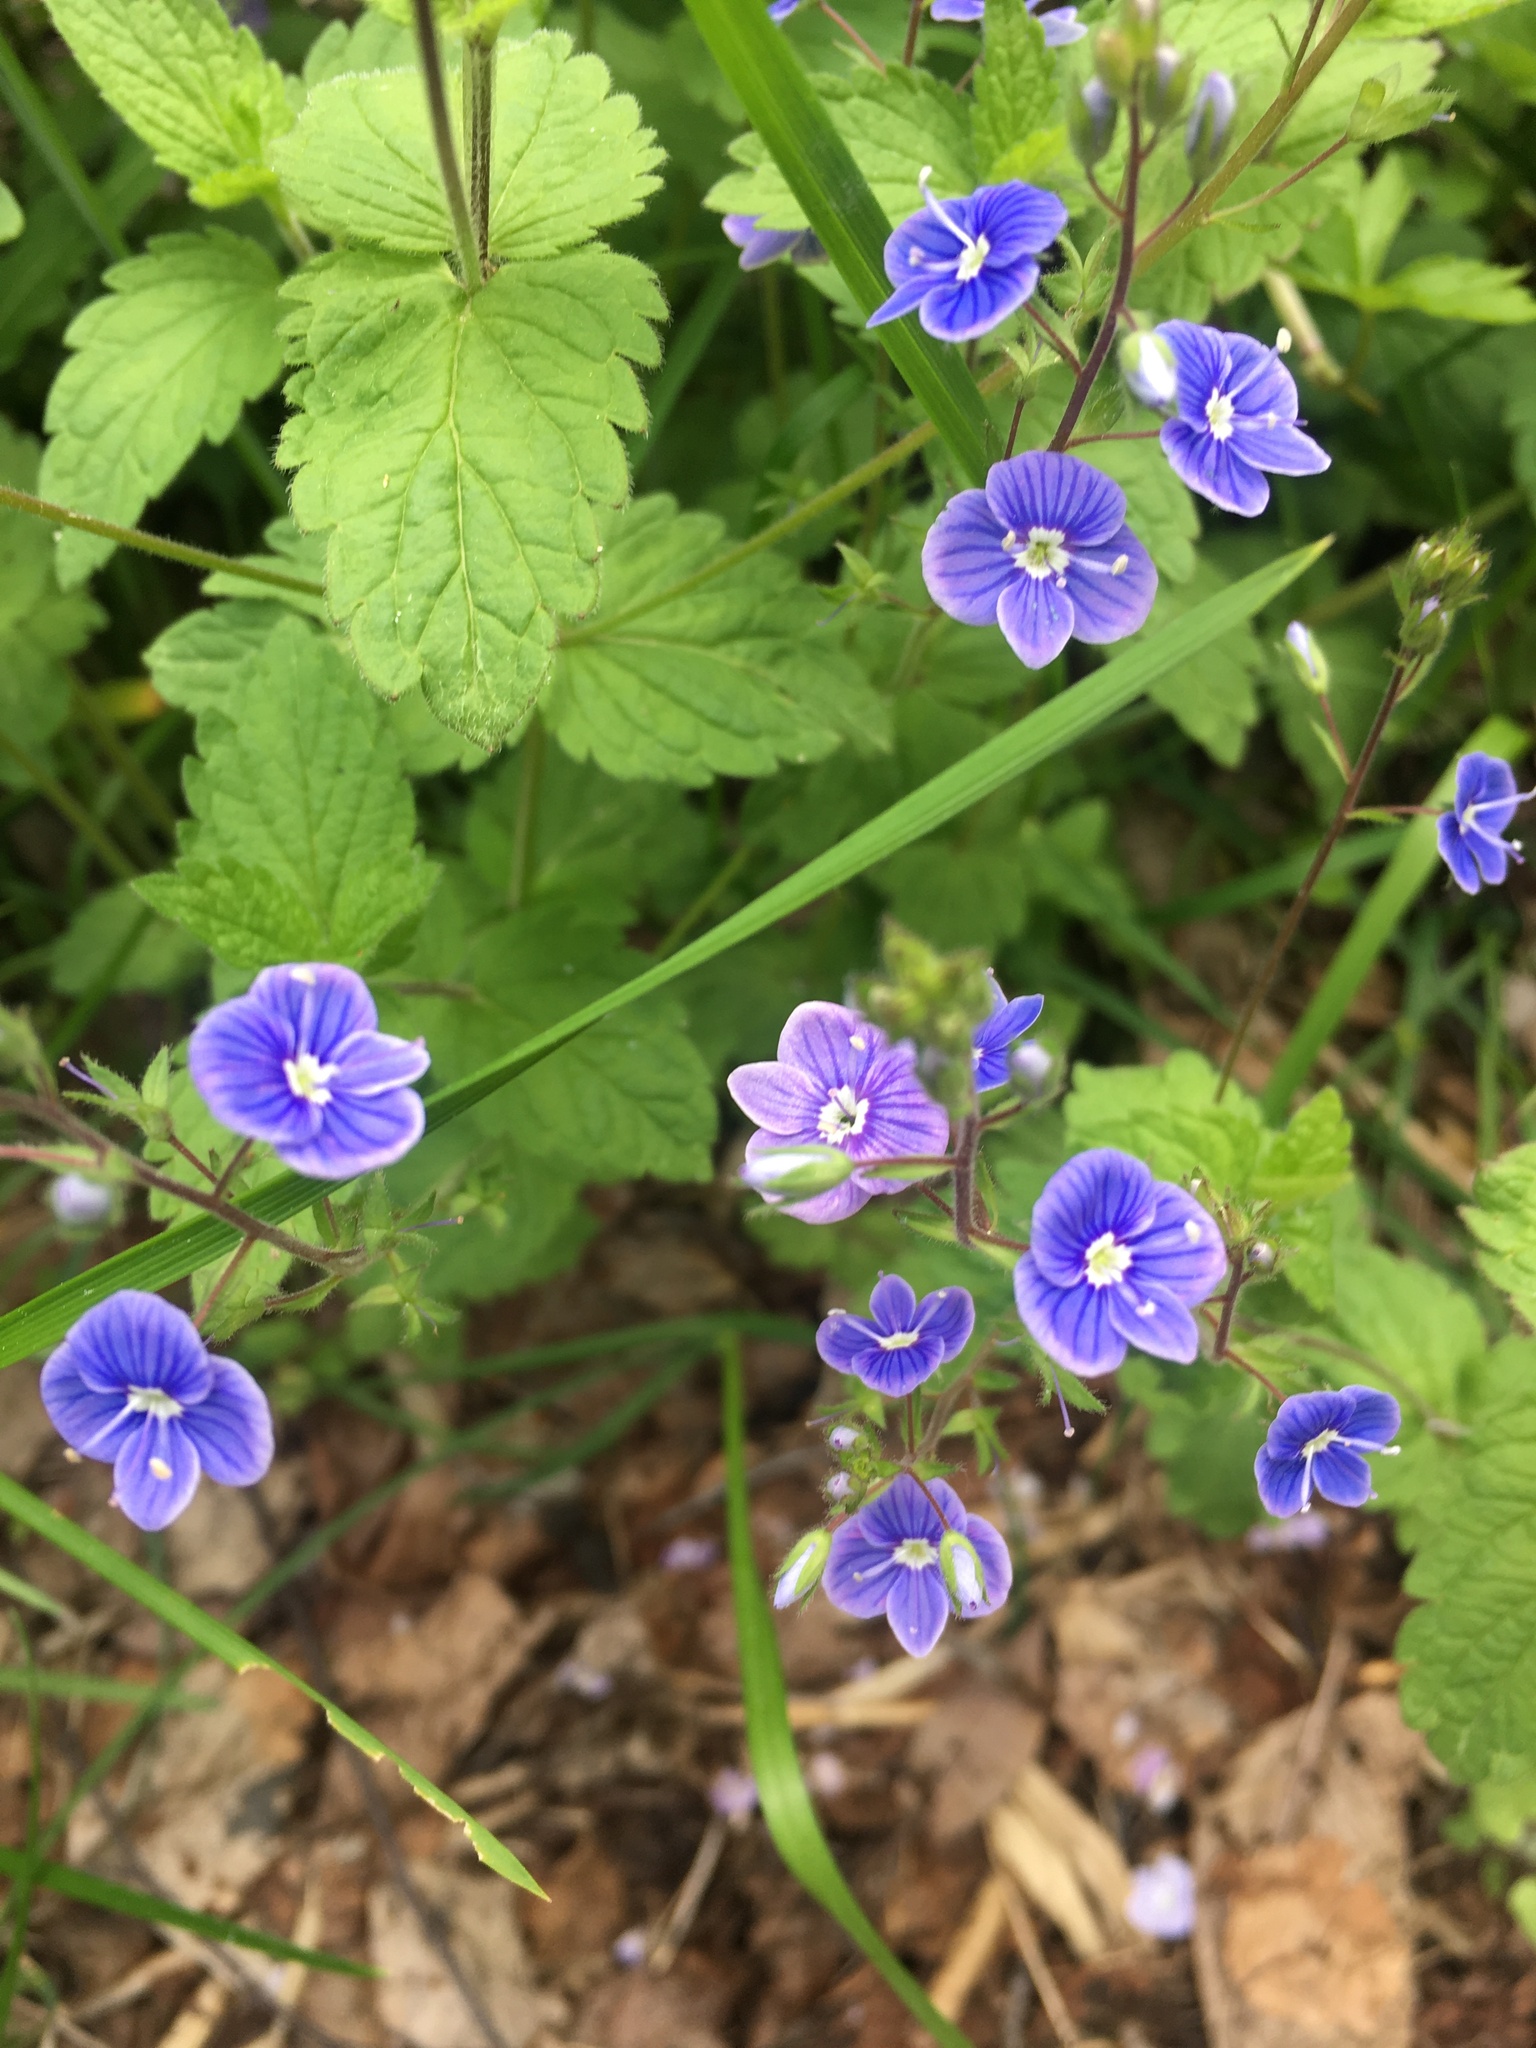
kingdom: Plantae
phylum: Tracheophyta
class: Magnoliopsida
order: Lamiales
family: Plantaginaceae
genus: Veronica
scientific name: Veronica chamaedrys
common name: Germander speedwell
